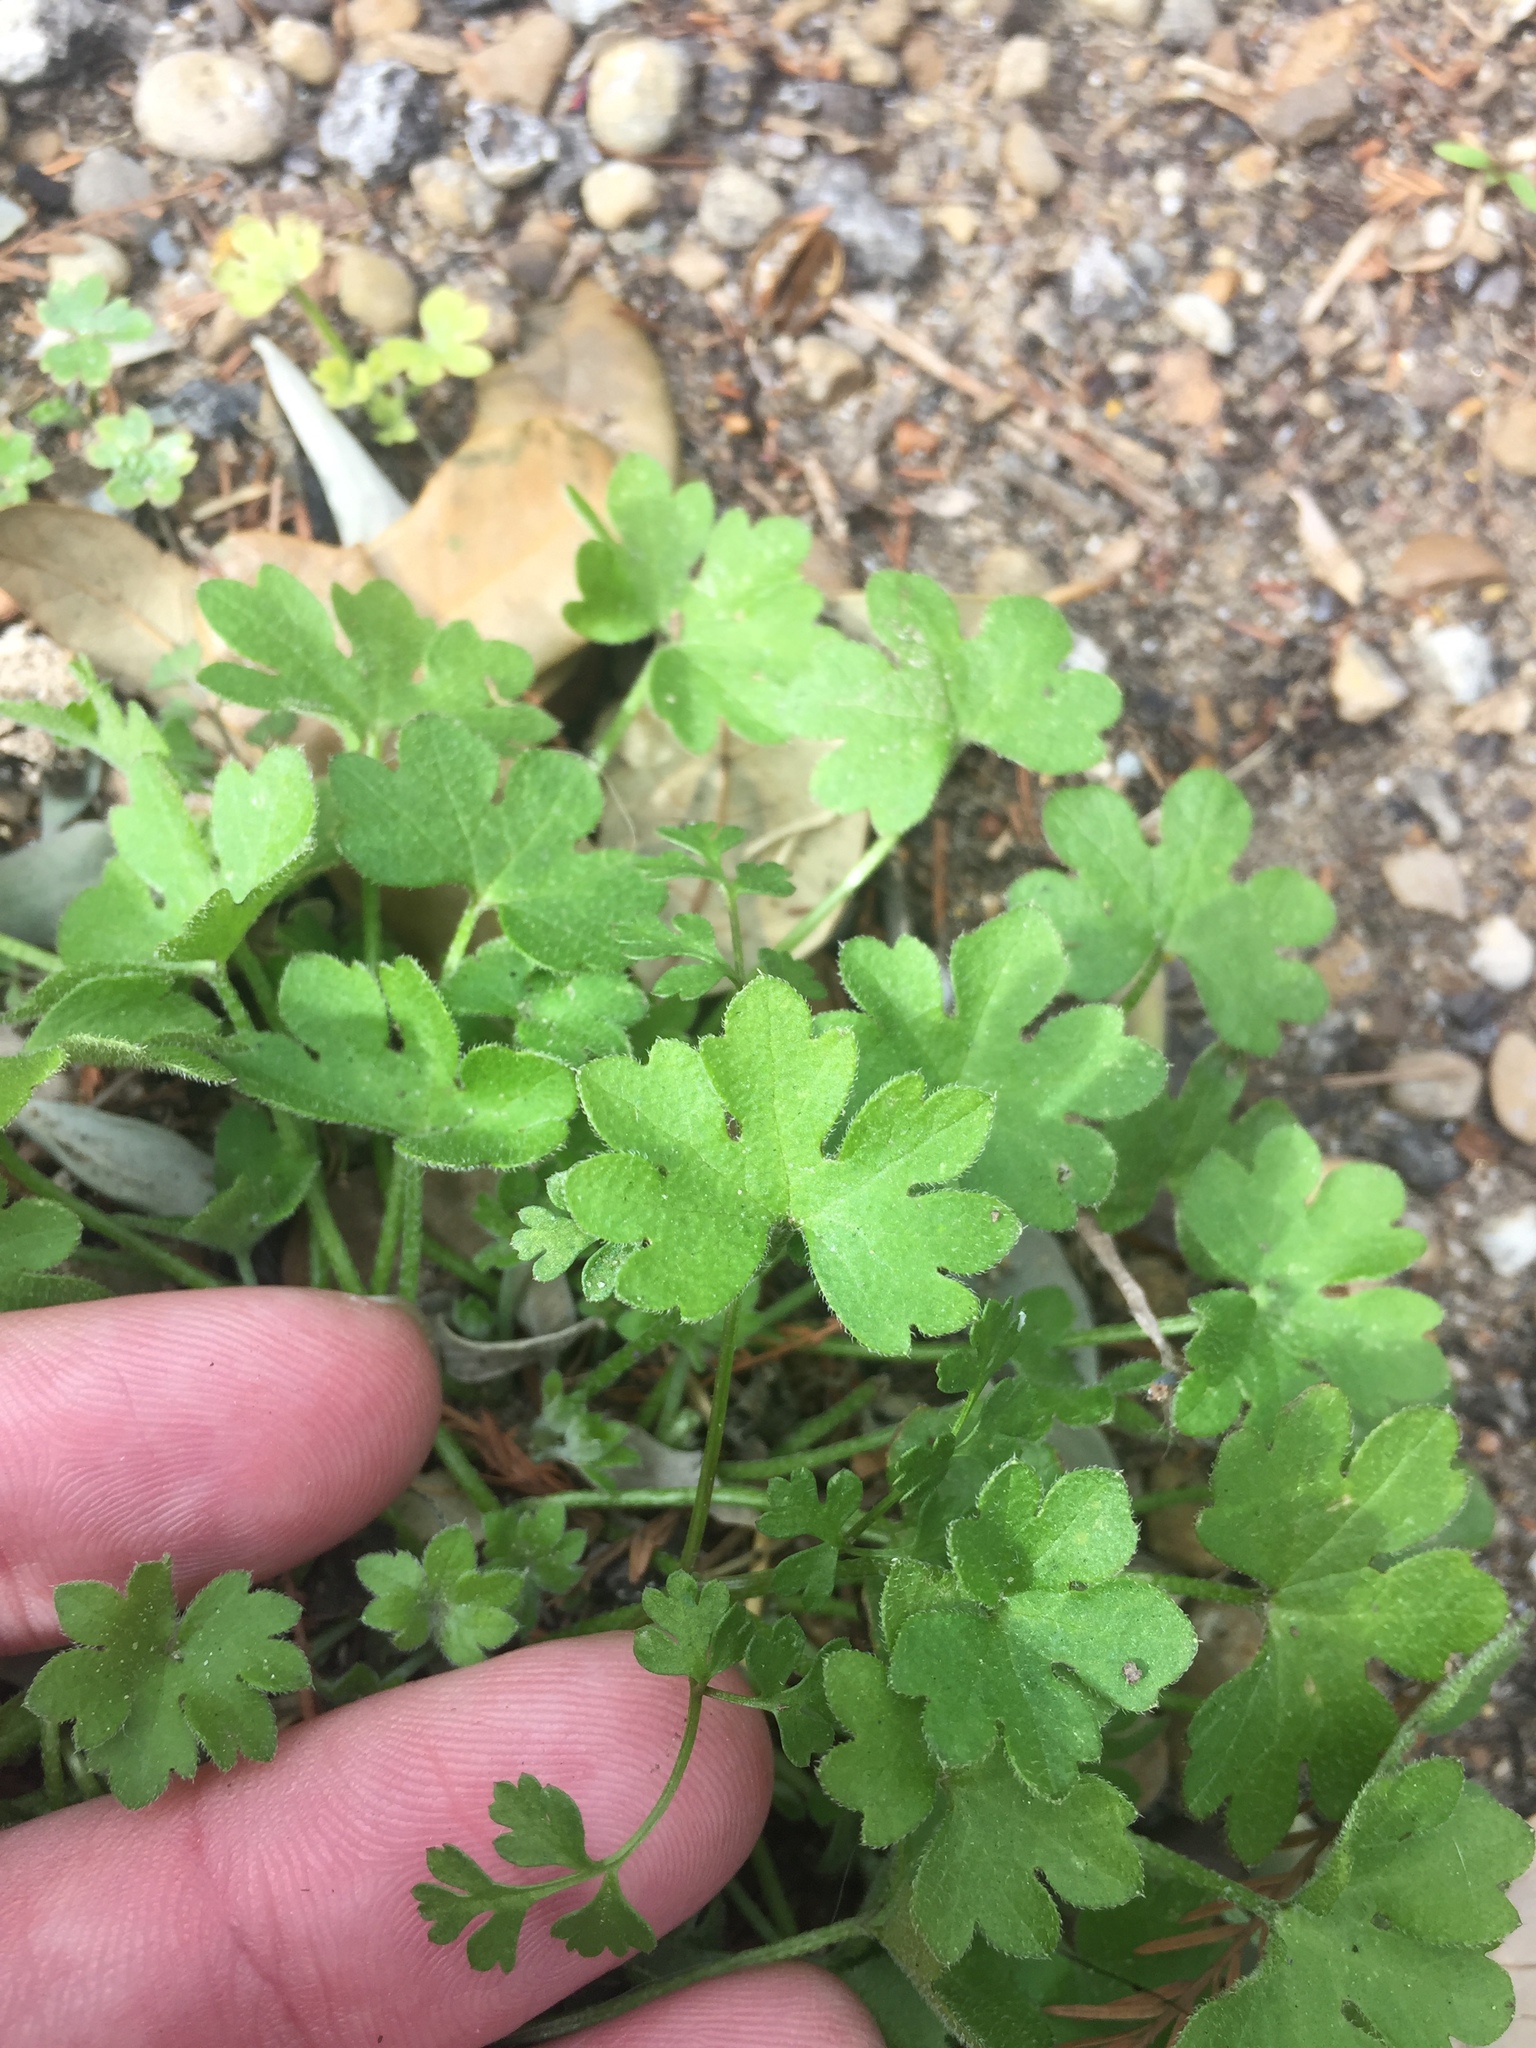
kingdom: Plantae
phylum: Tracheophyta
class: Magnoliopsida
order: Apiales
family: Apiaceae
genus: Bowlesia
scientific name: Bowlesia incana
